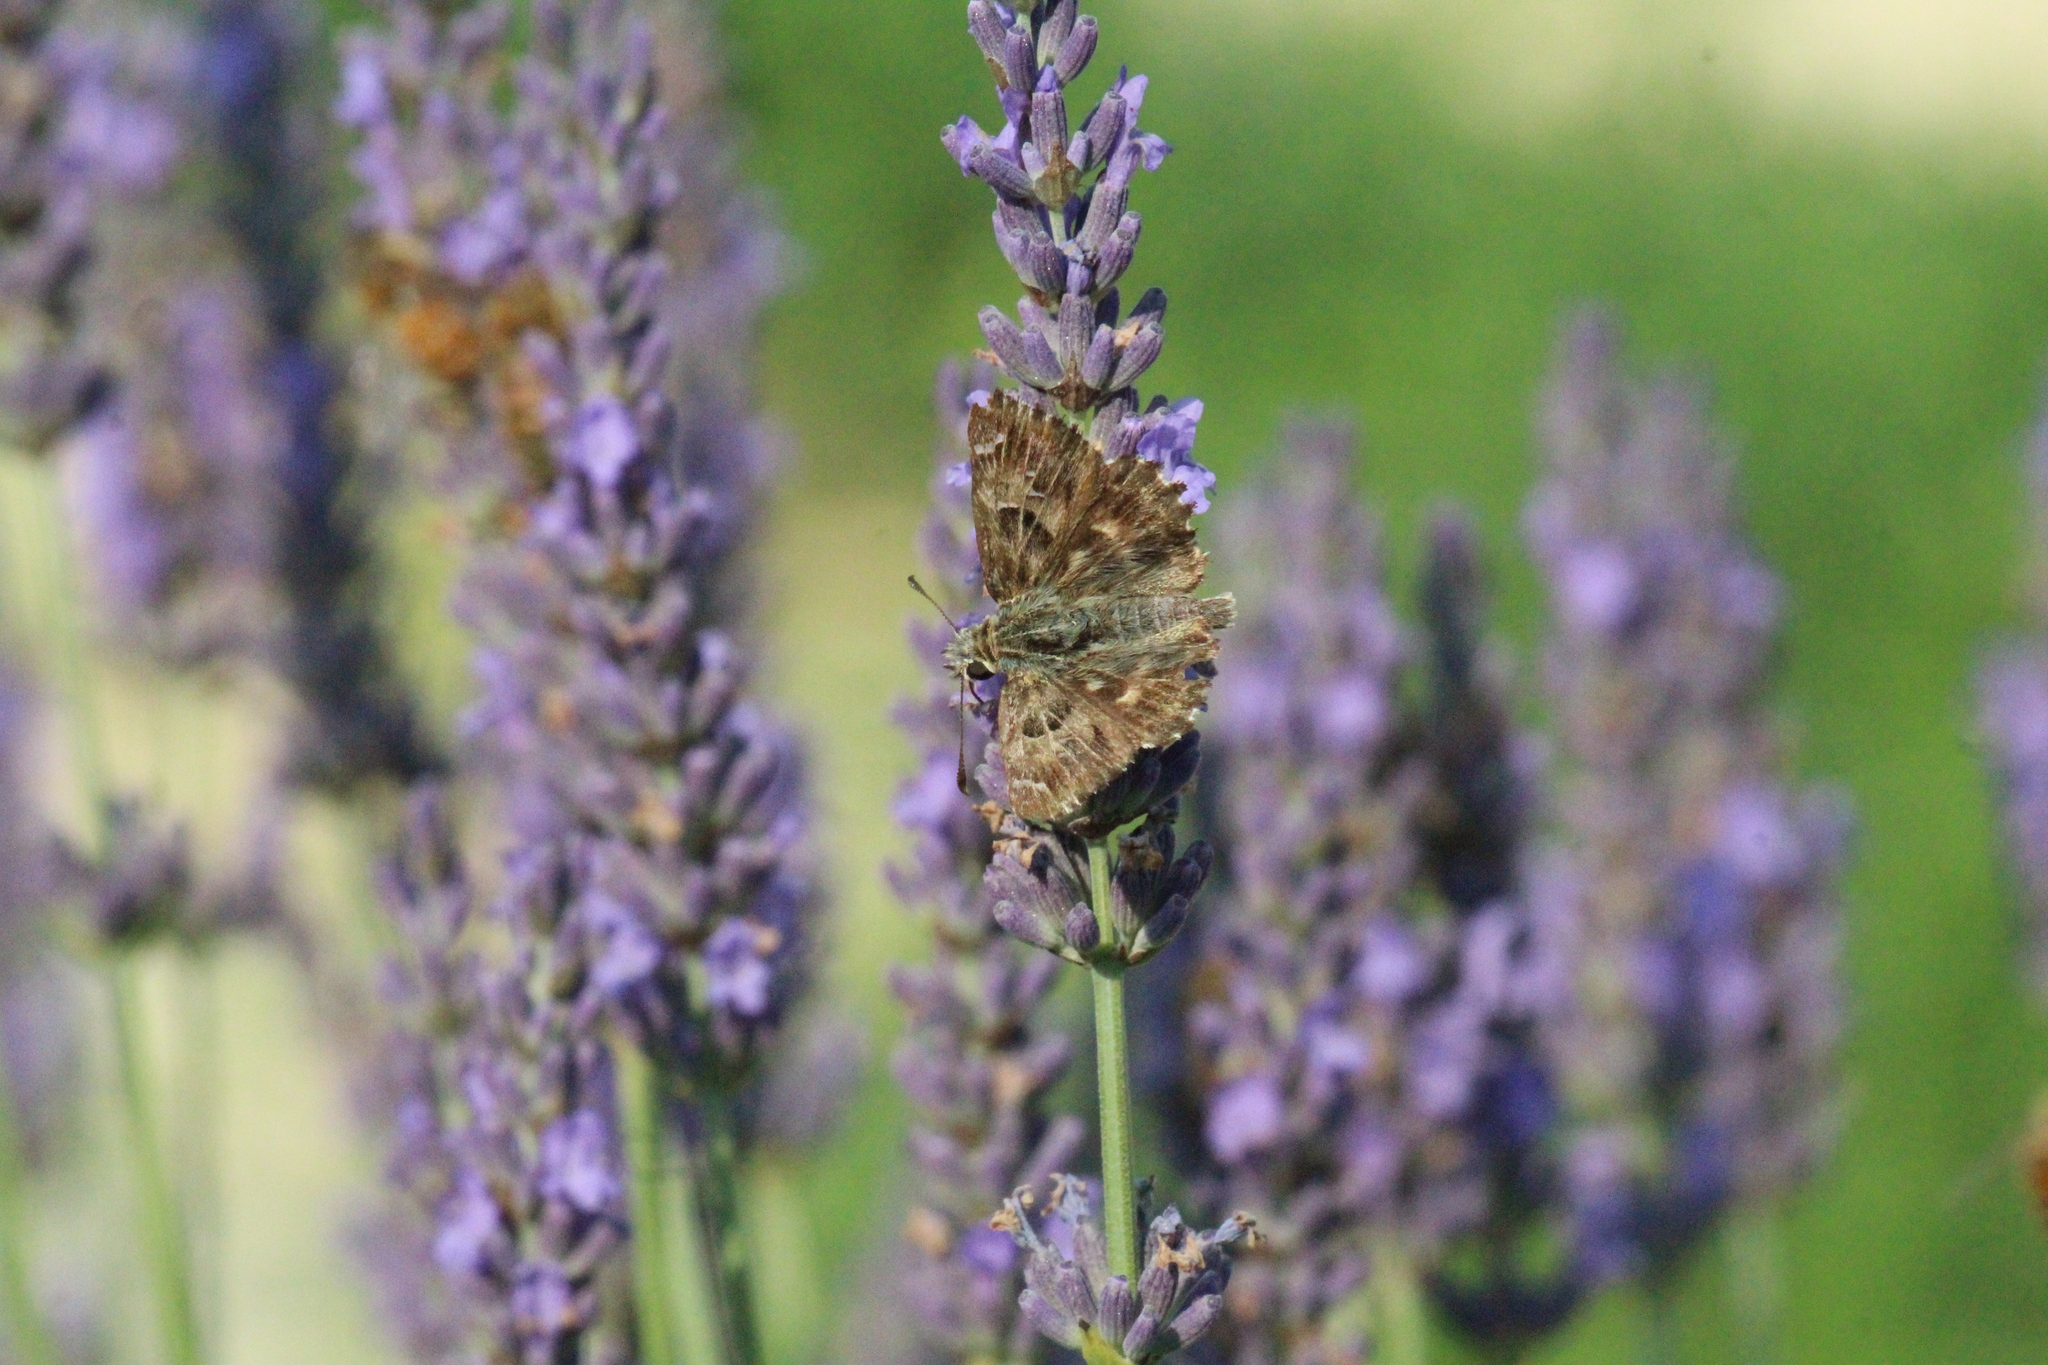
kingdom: Animalia
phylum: Arthropoda
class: Insecta
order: Lepidoptera
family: Hesperiidae
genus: Carcharodus
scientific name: Carcharodus alceae
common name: Mallow skipper
